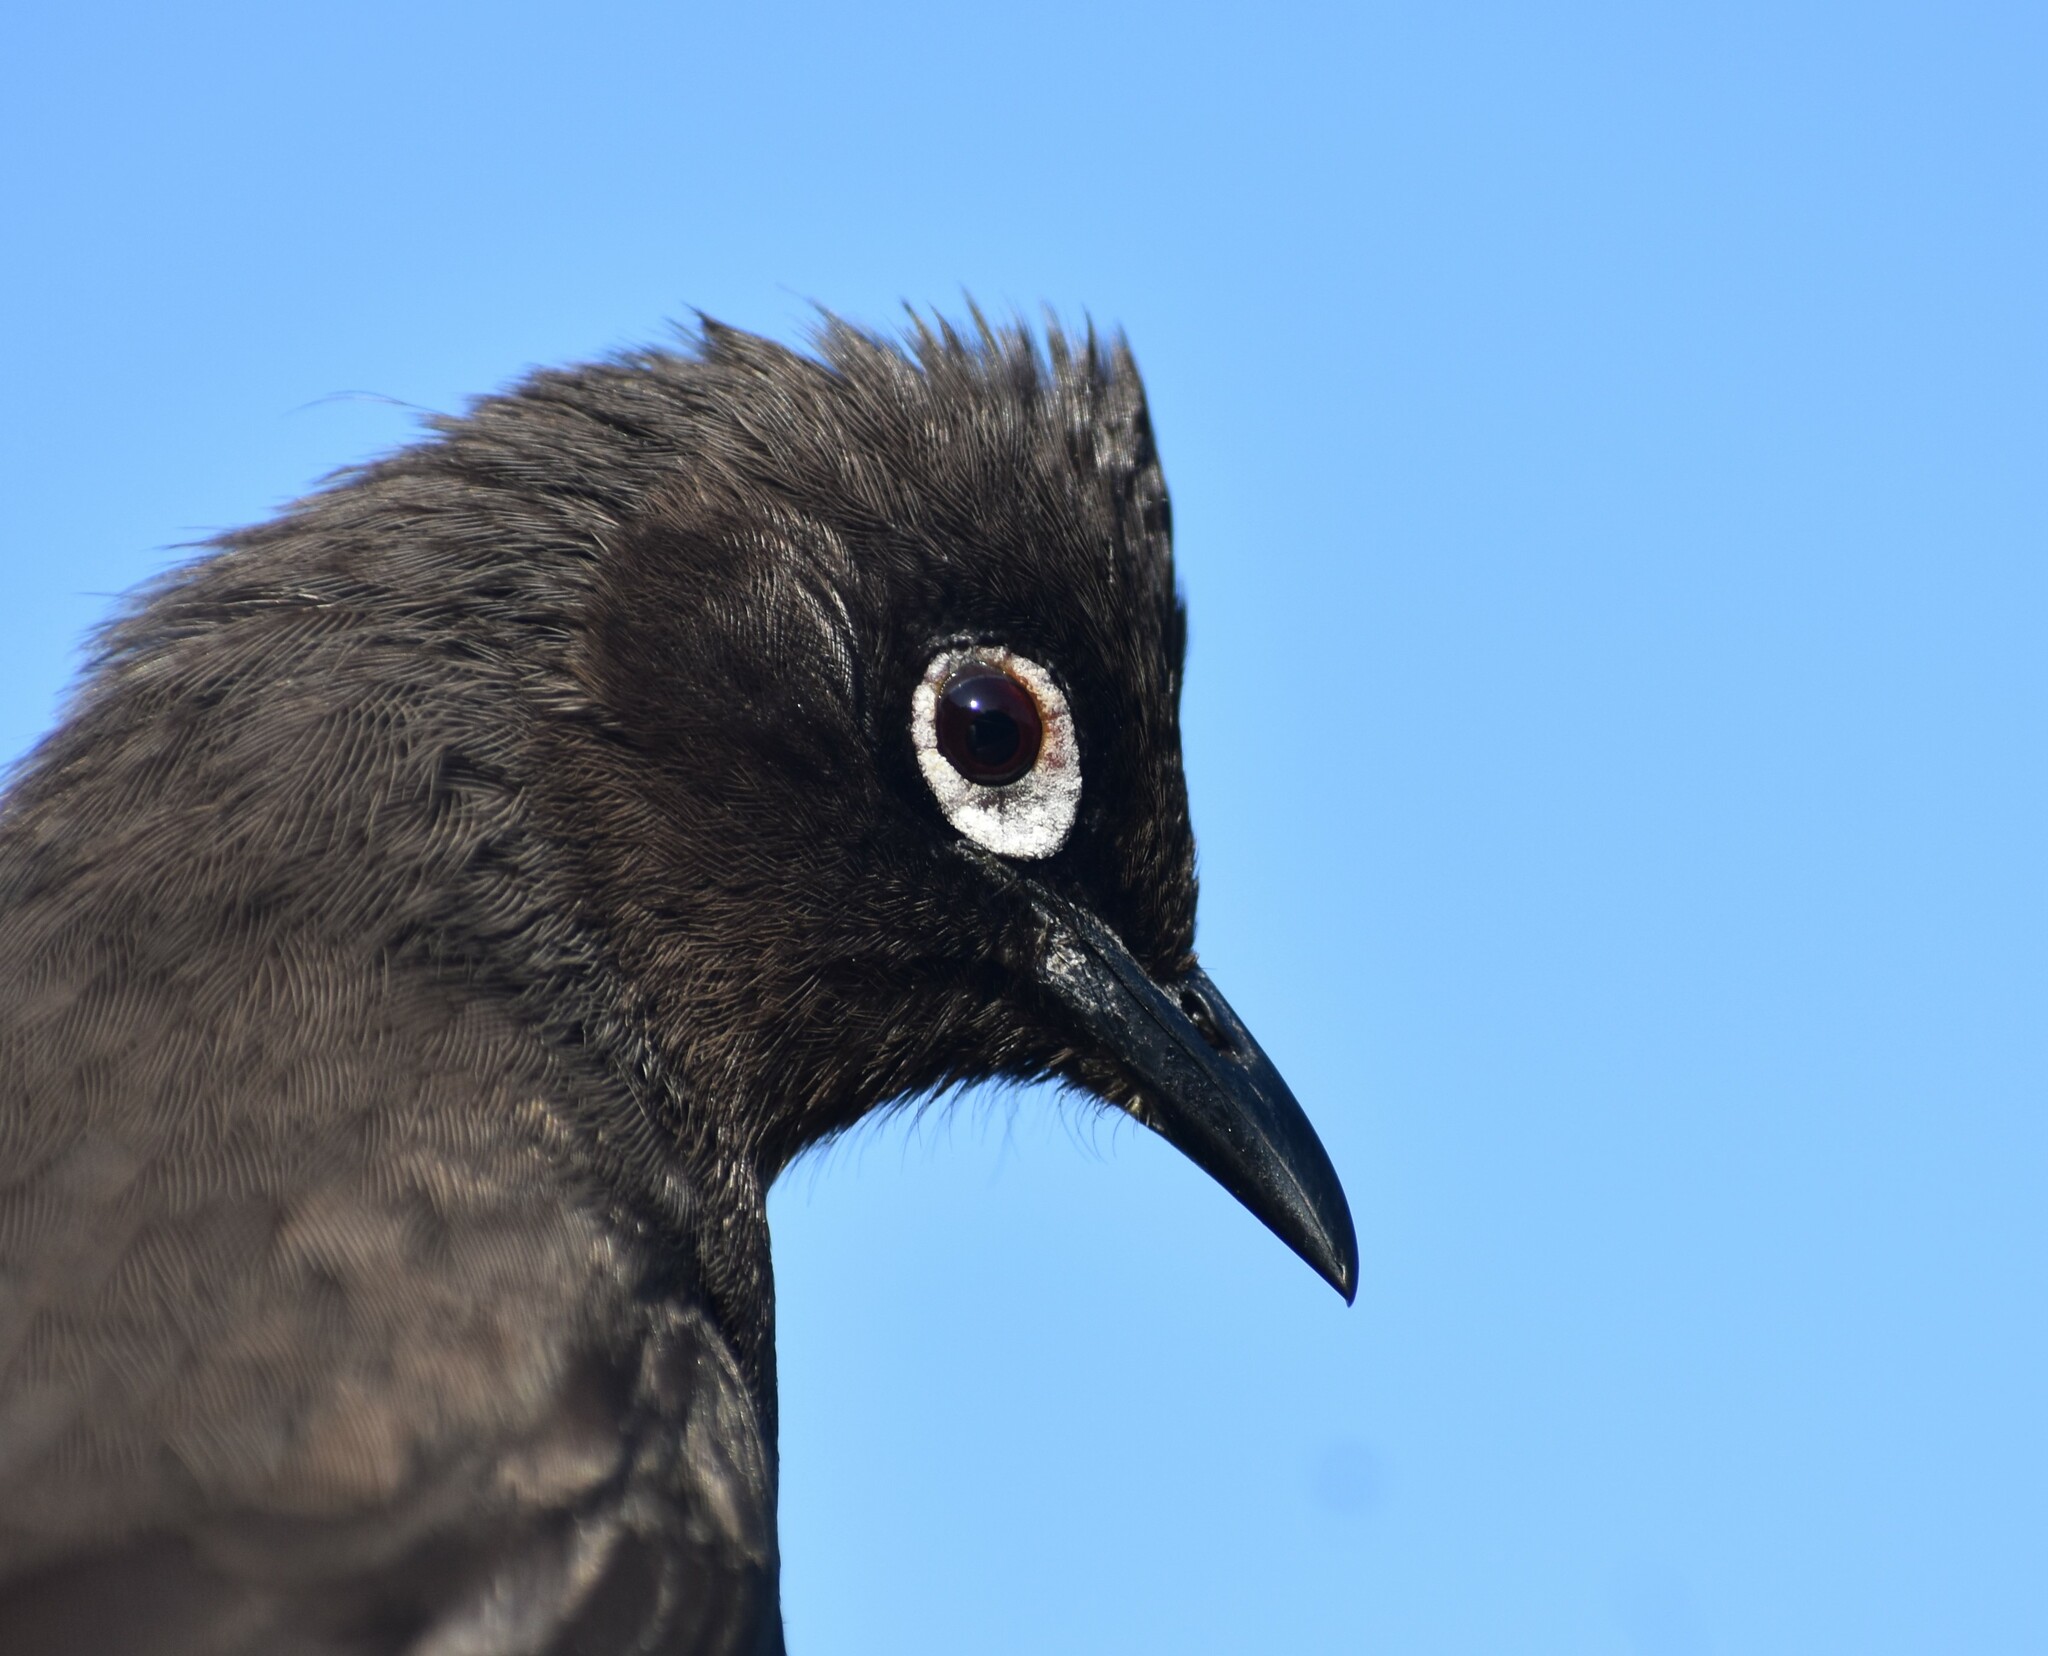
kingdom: Animalia
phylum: Chordata
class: Aves
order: Passeriformes
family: Pycnonotidae
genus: Pycnonotus
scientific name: Pycnonotus capensis
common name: Cape bulbul
